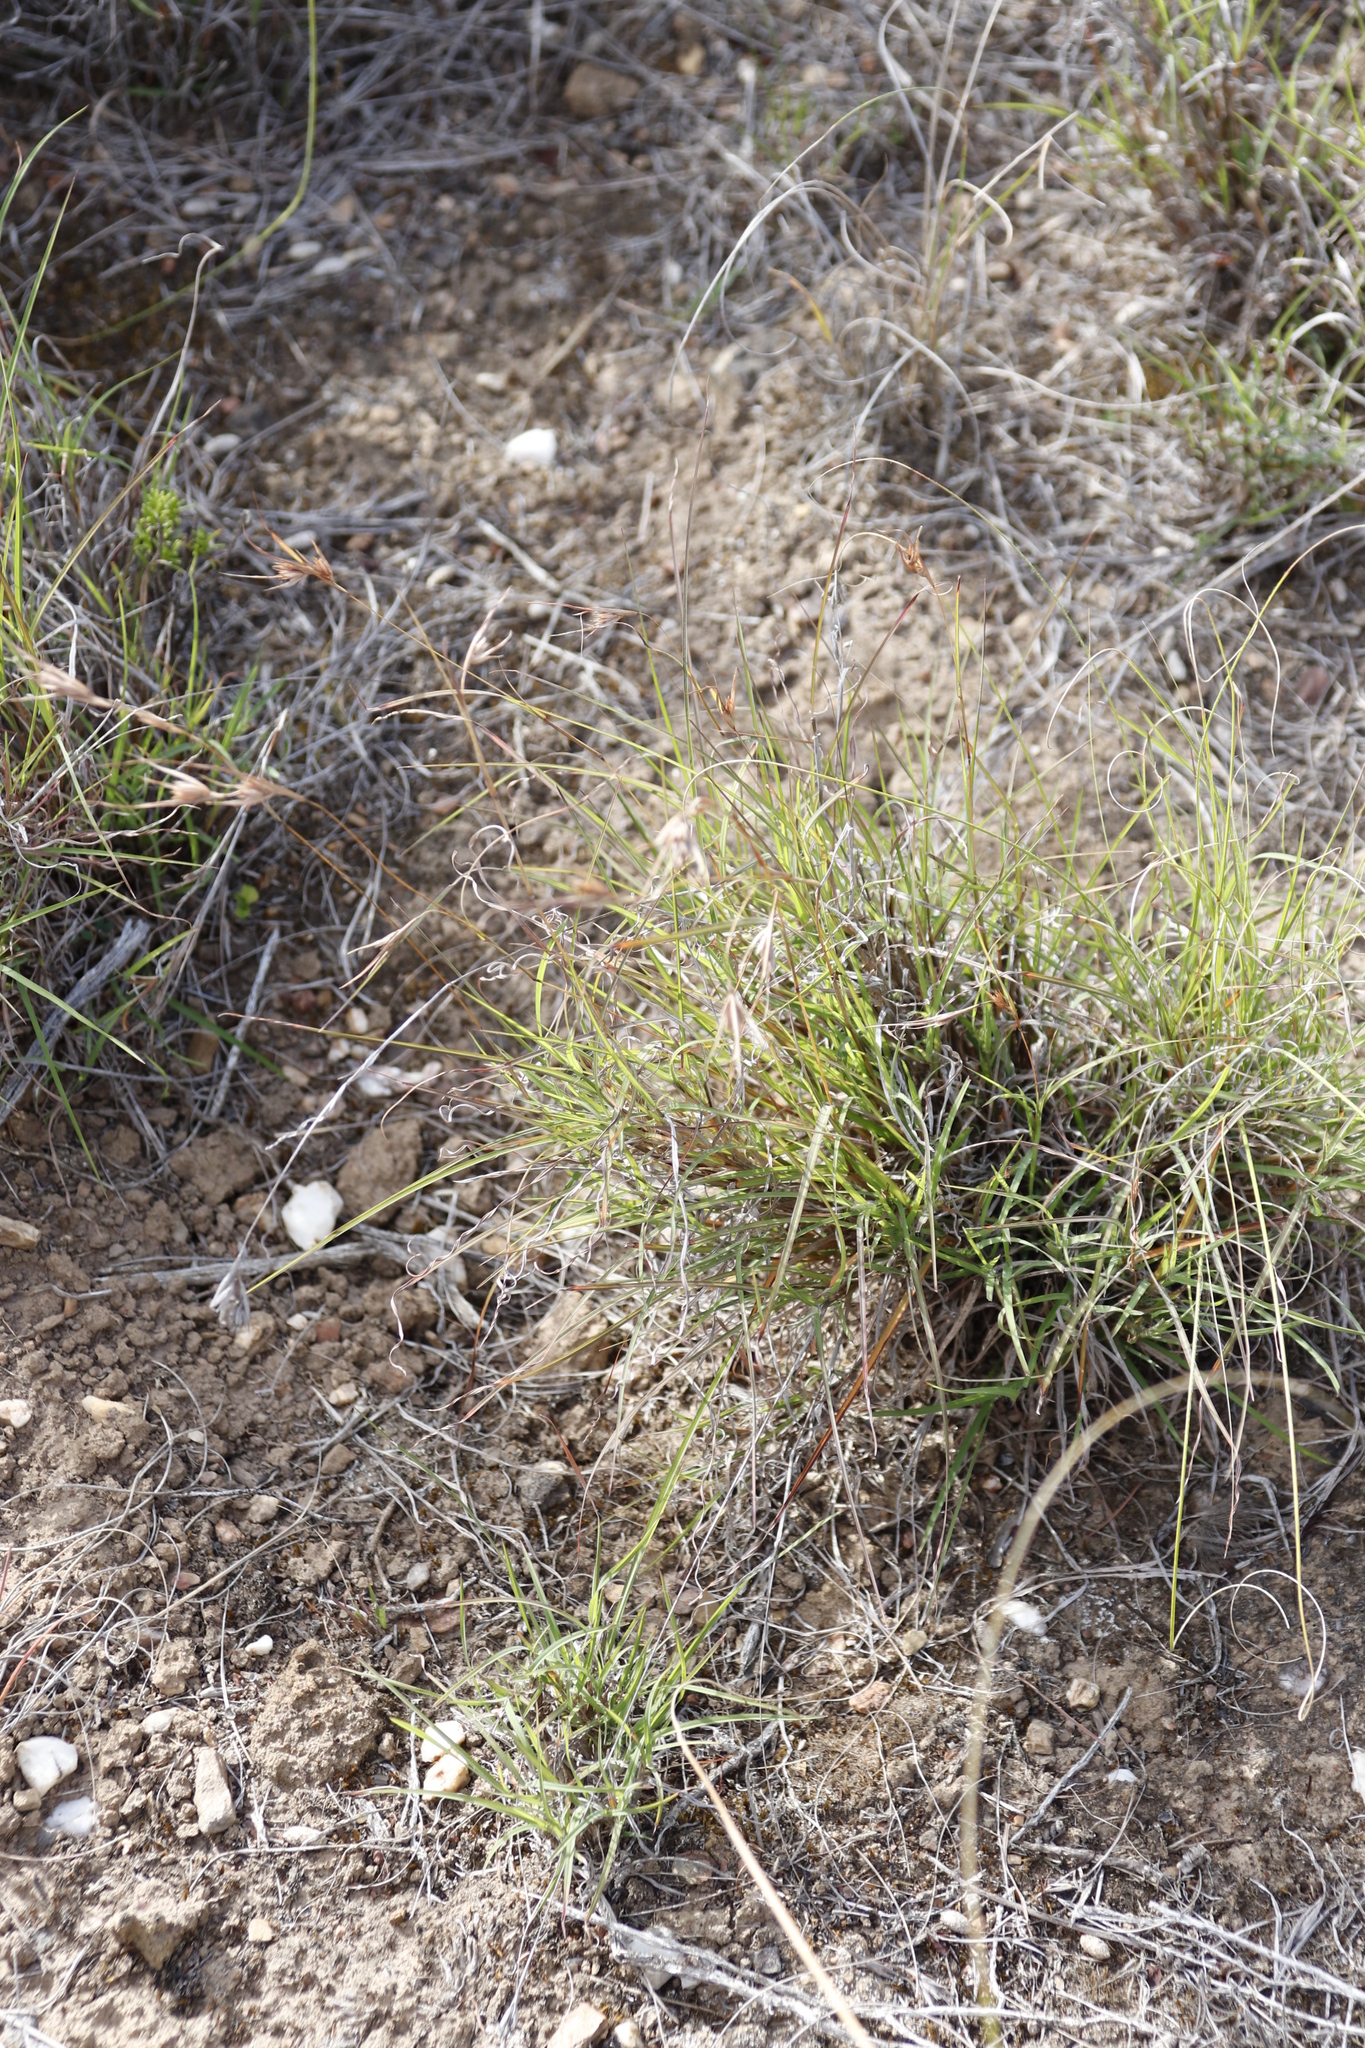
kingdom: Plantae
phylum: Tracheophyta
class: Liliopsida
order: Poales
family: Poaceae
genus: Themeda
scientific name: Themeda triandra
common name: Kangaroo grass
